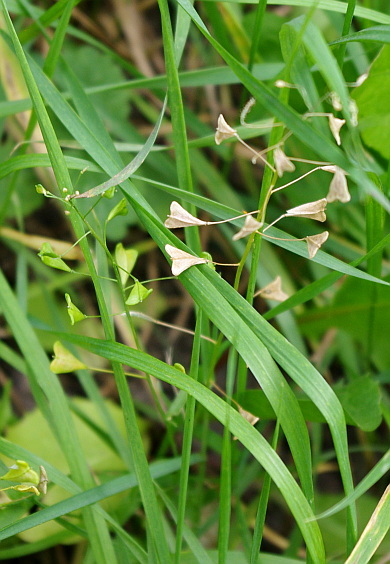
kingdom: Plantae
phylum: Tracheophyta
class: Magnoliopsida
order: Brassicales
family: Brassicaceae
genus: Capsella
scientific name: Capsella bursa-pastoris
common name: Shepherd's purse
